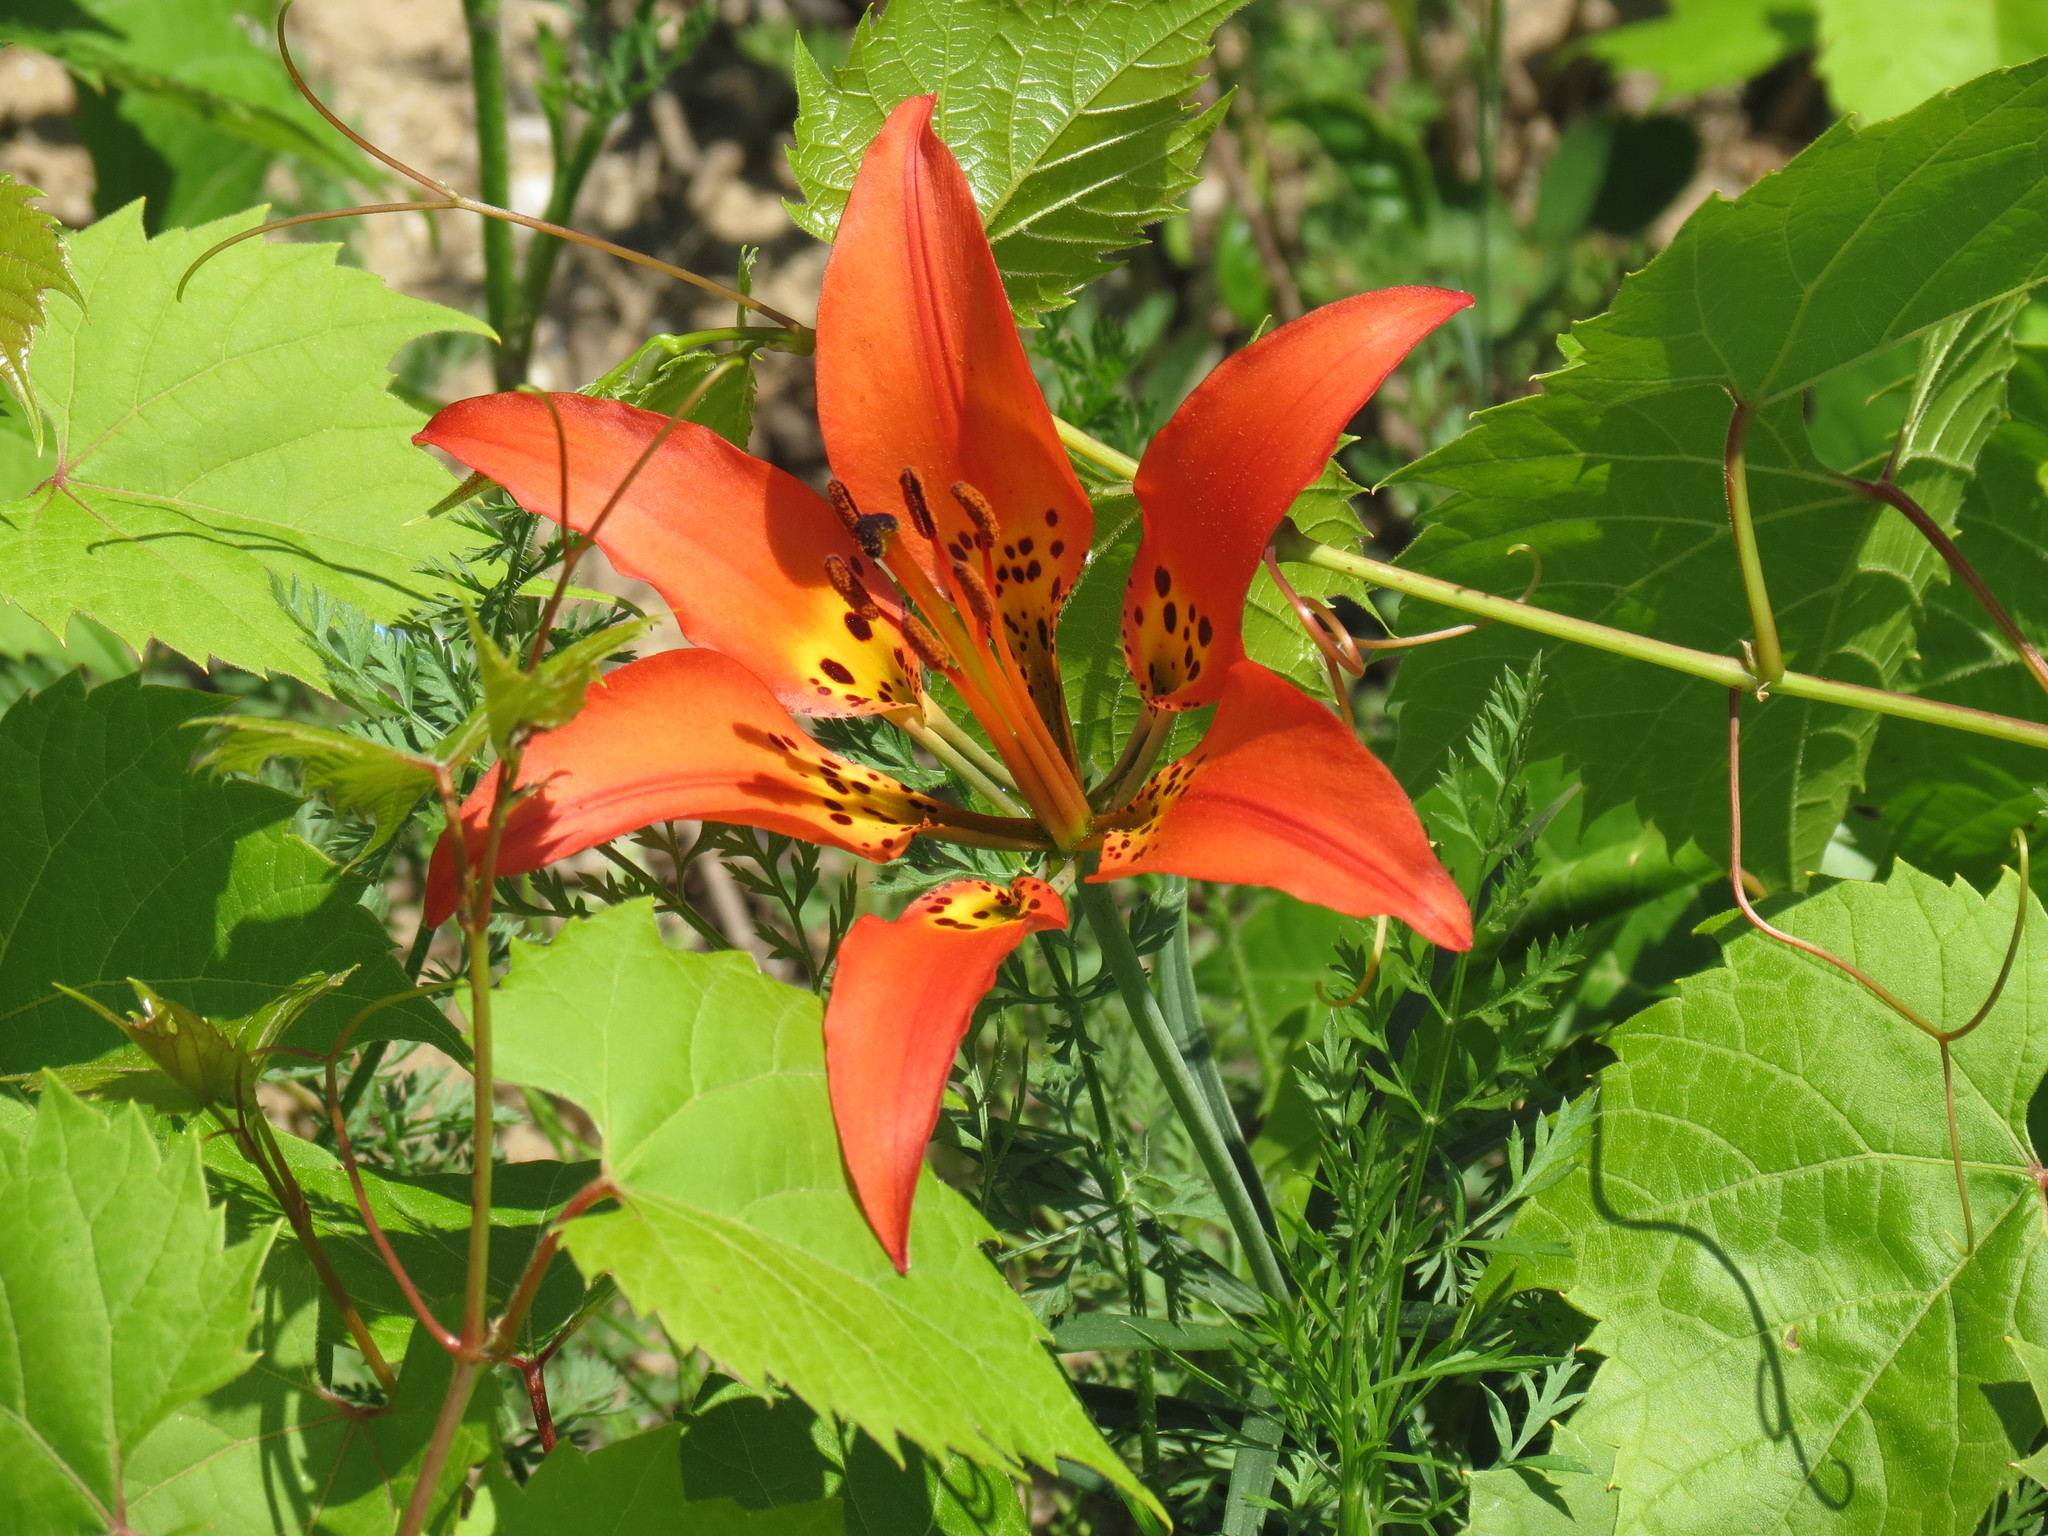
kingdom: Plantae
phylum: Tracheophyta
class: Liliopsida
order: Liliales
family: Liliaceae
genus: Lilium
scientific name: Lilium philadelphicum
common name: Red lily
